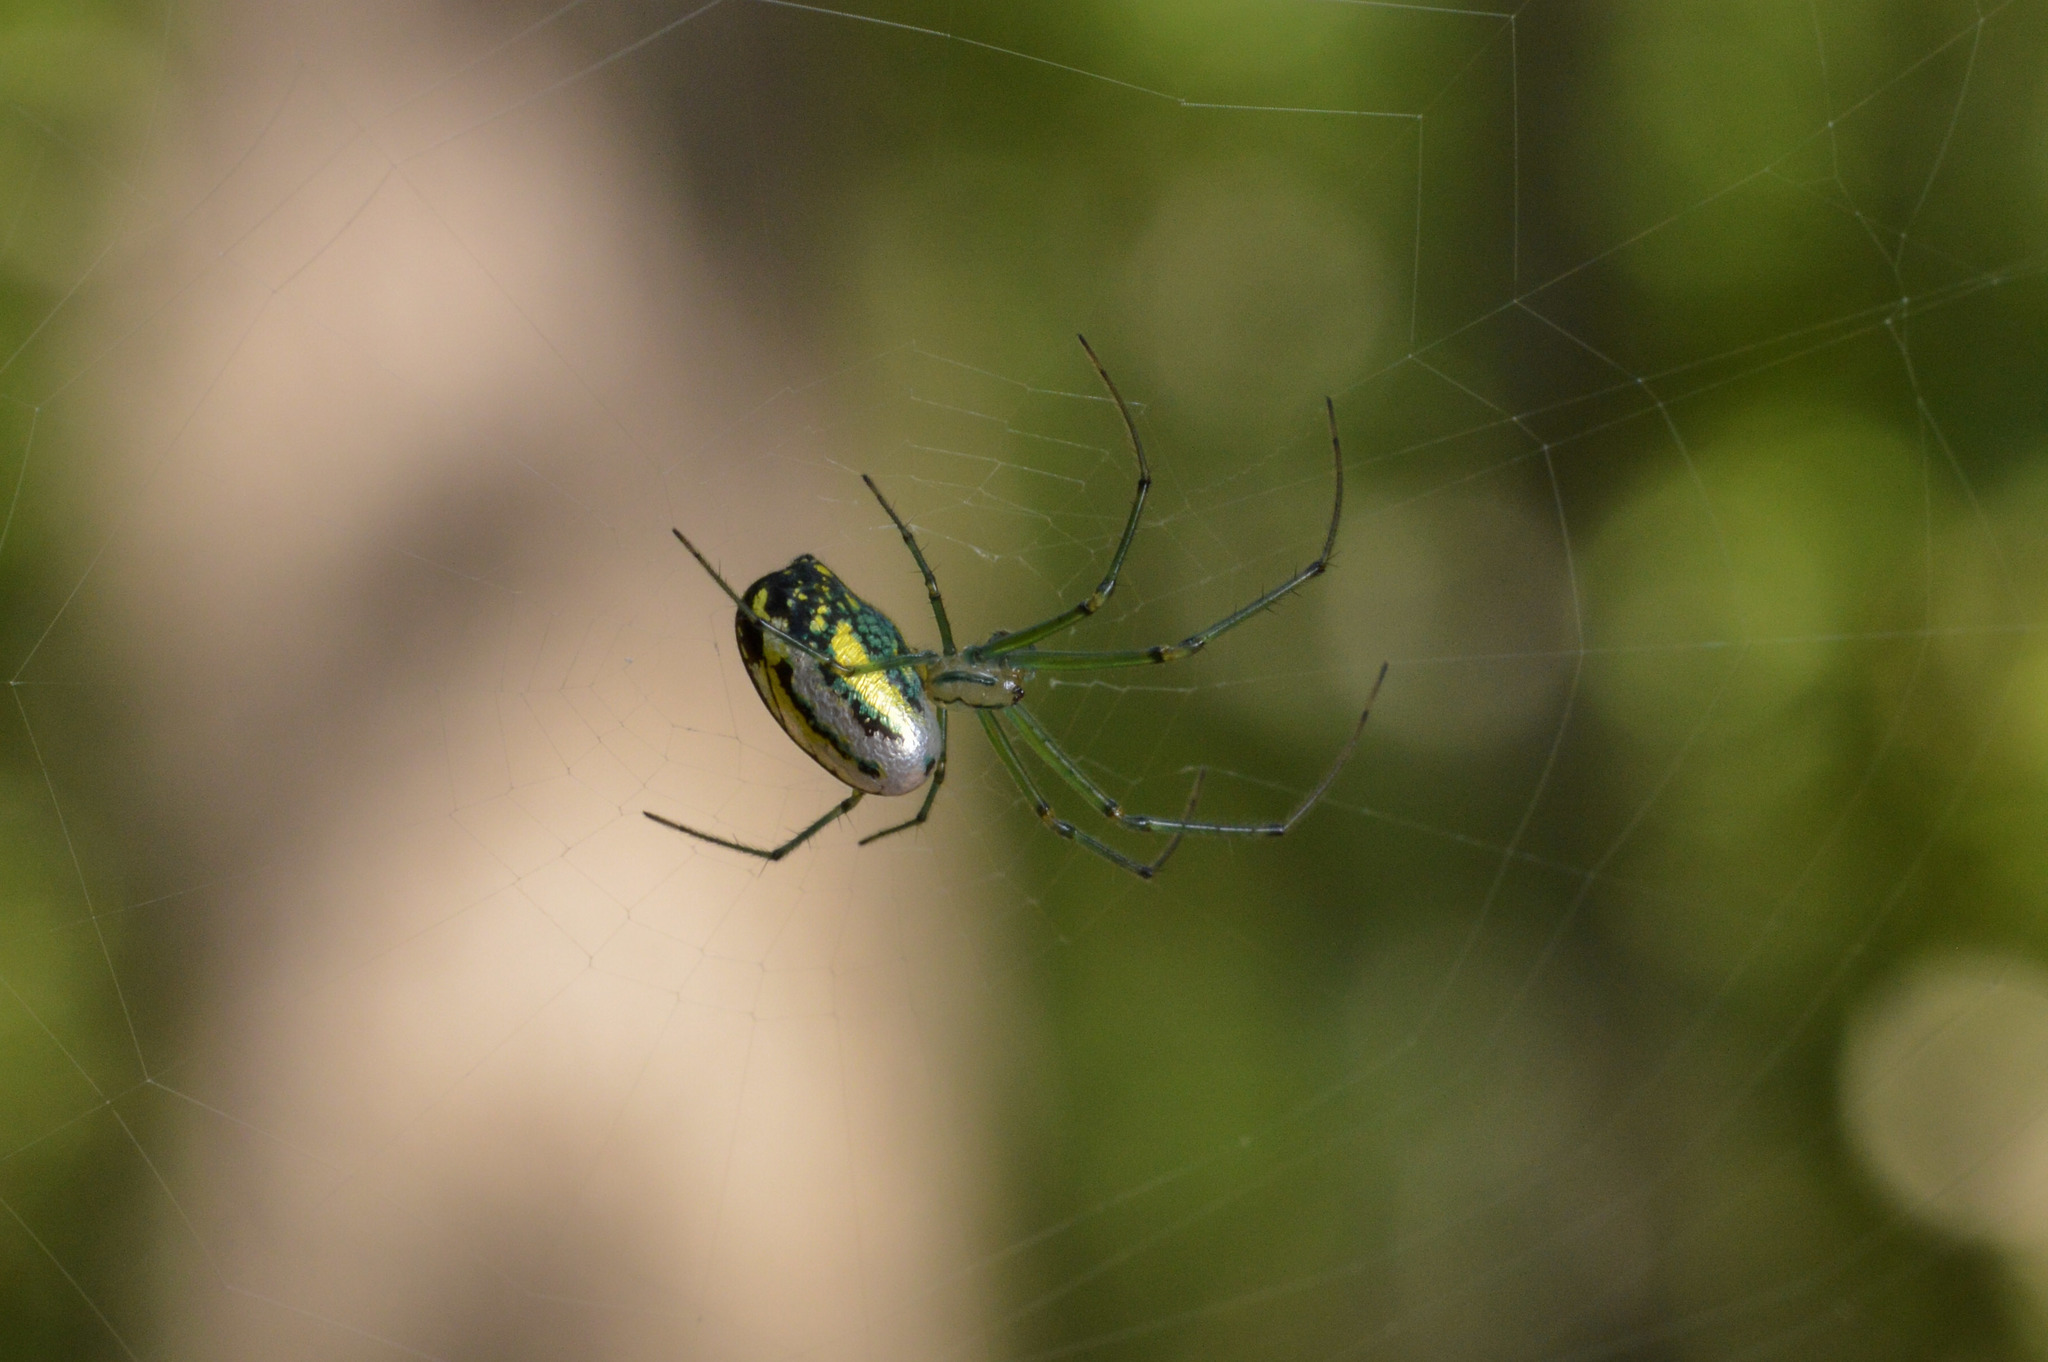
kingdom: Animalia
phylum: Arthropoda
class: Arachnida
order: Araneae
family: Tetragnathidae
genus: Leucauge
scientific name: Leucauge venusta
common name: Longjawed orb weavers
